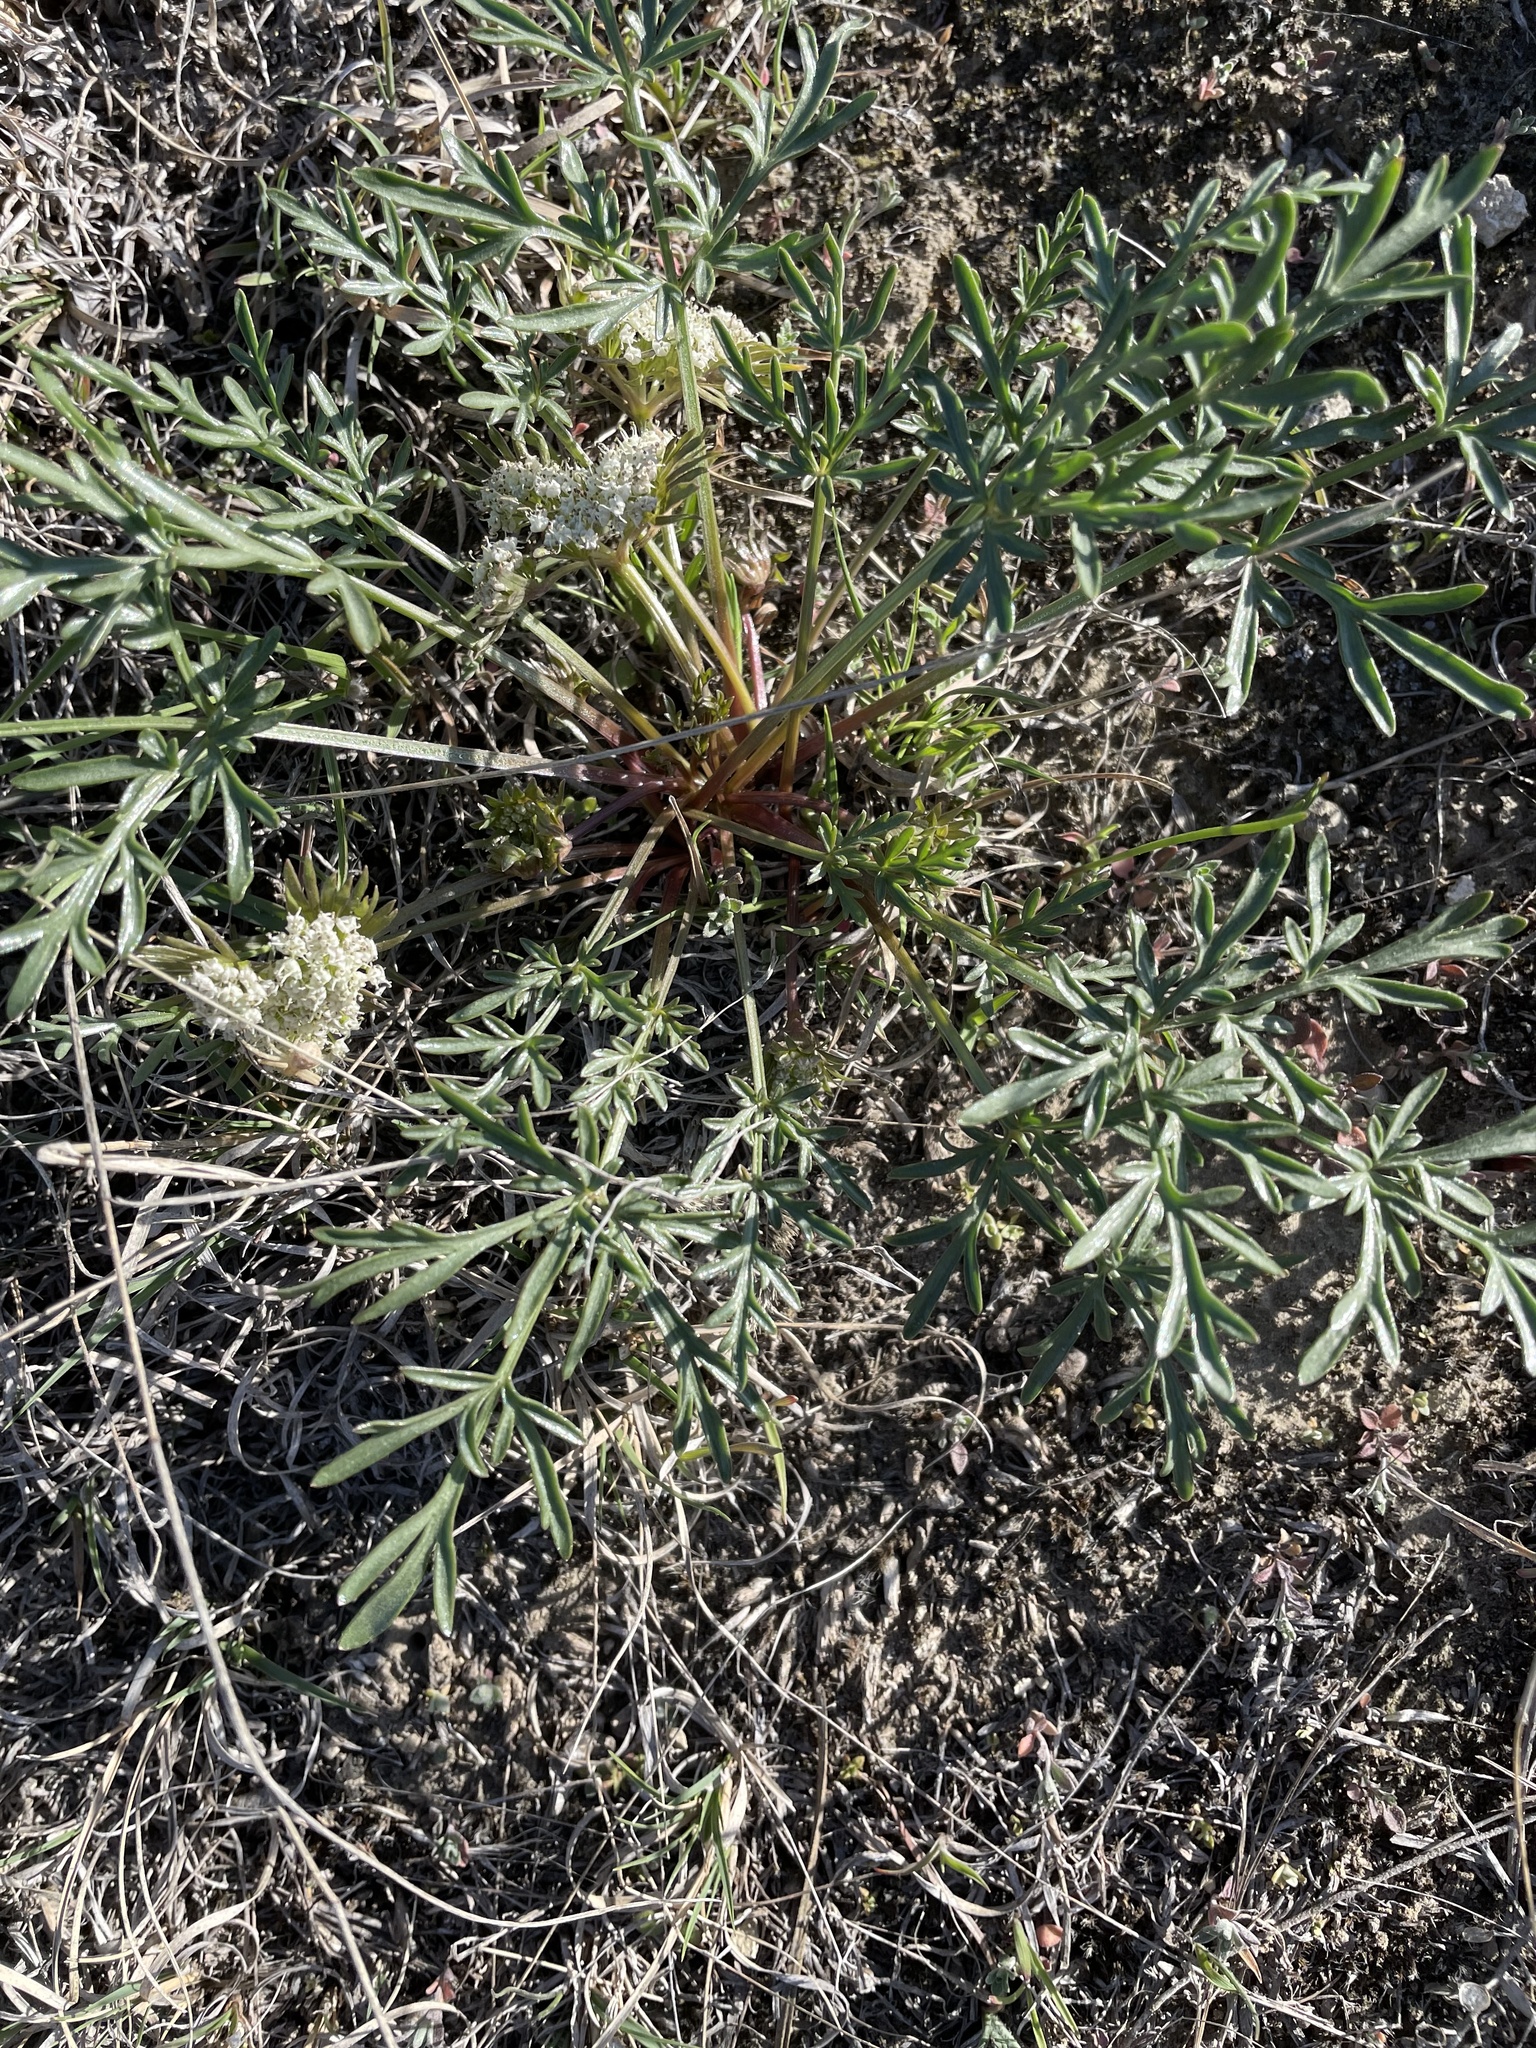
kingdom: Plantae
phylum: Tracheophyta
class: Magnoliopsida
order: Apiales
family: Apiaceae
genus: Cymopterus
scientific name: Cymopterus glomeratus
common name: Plains spring parsley
